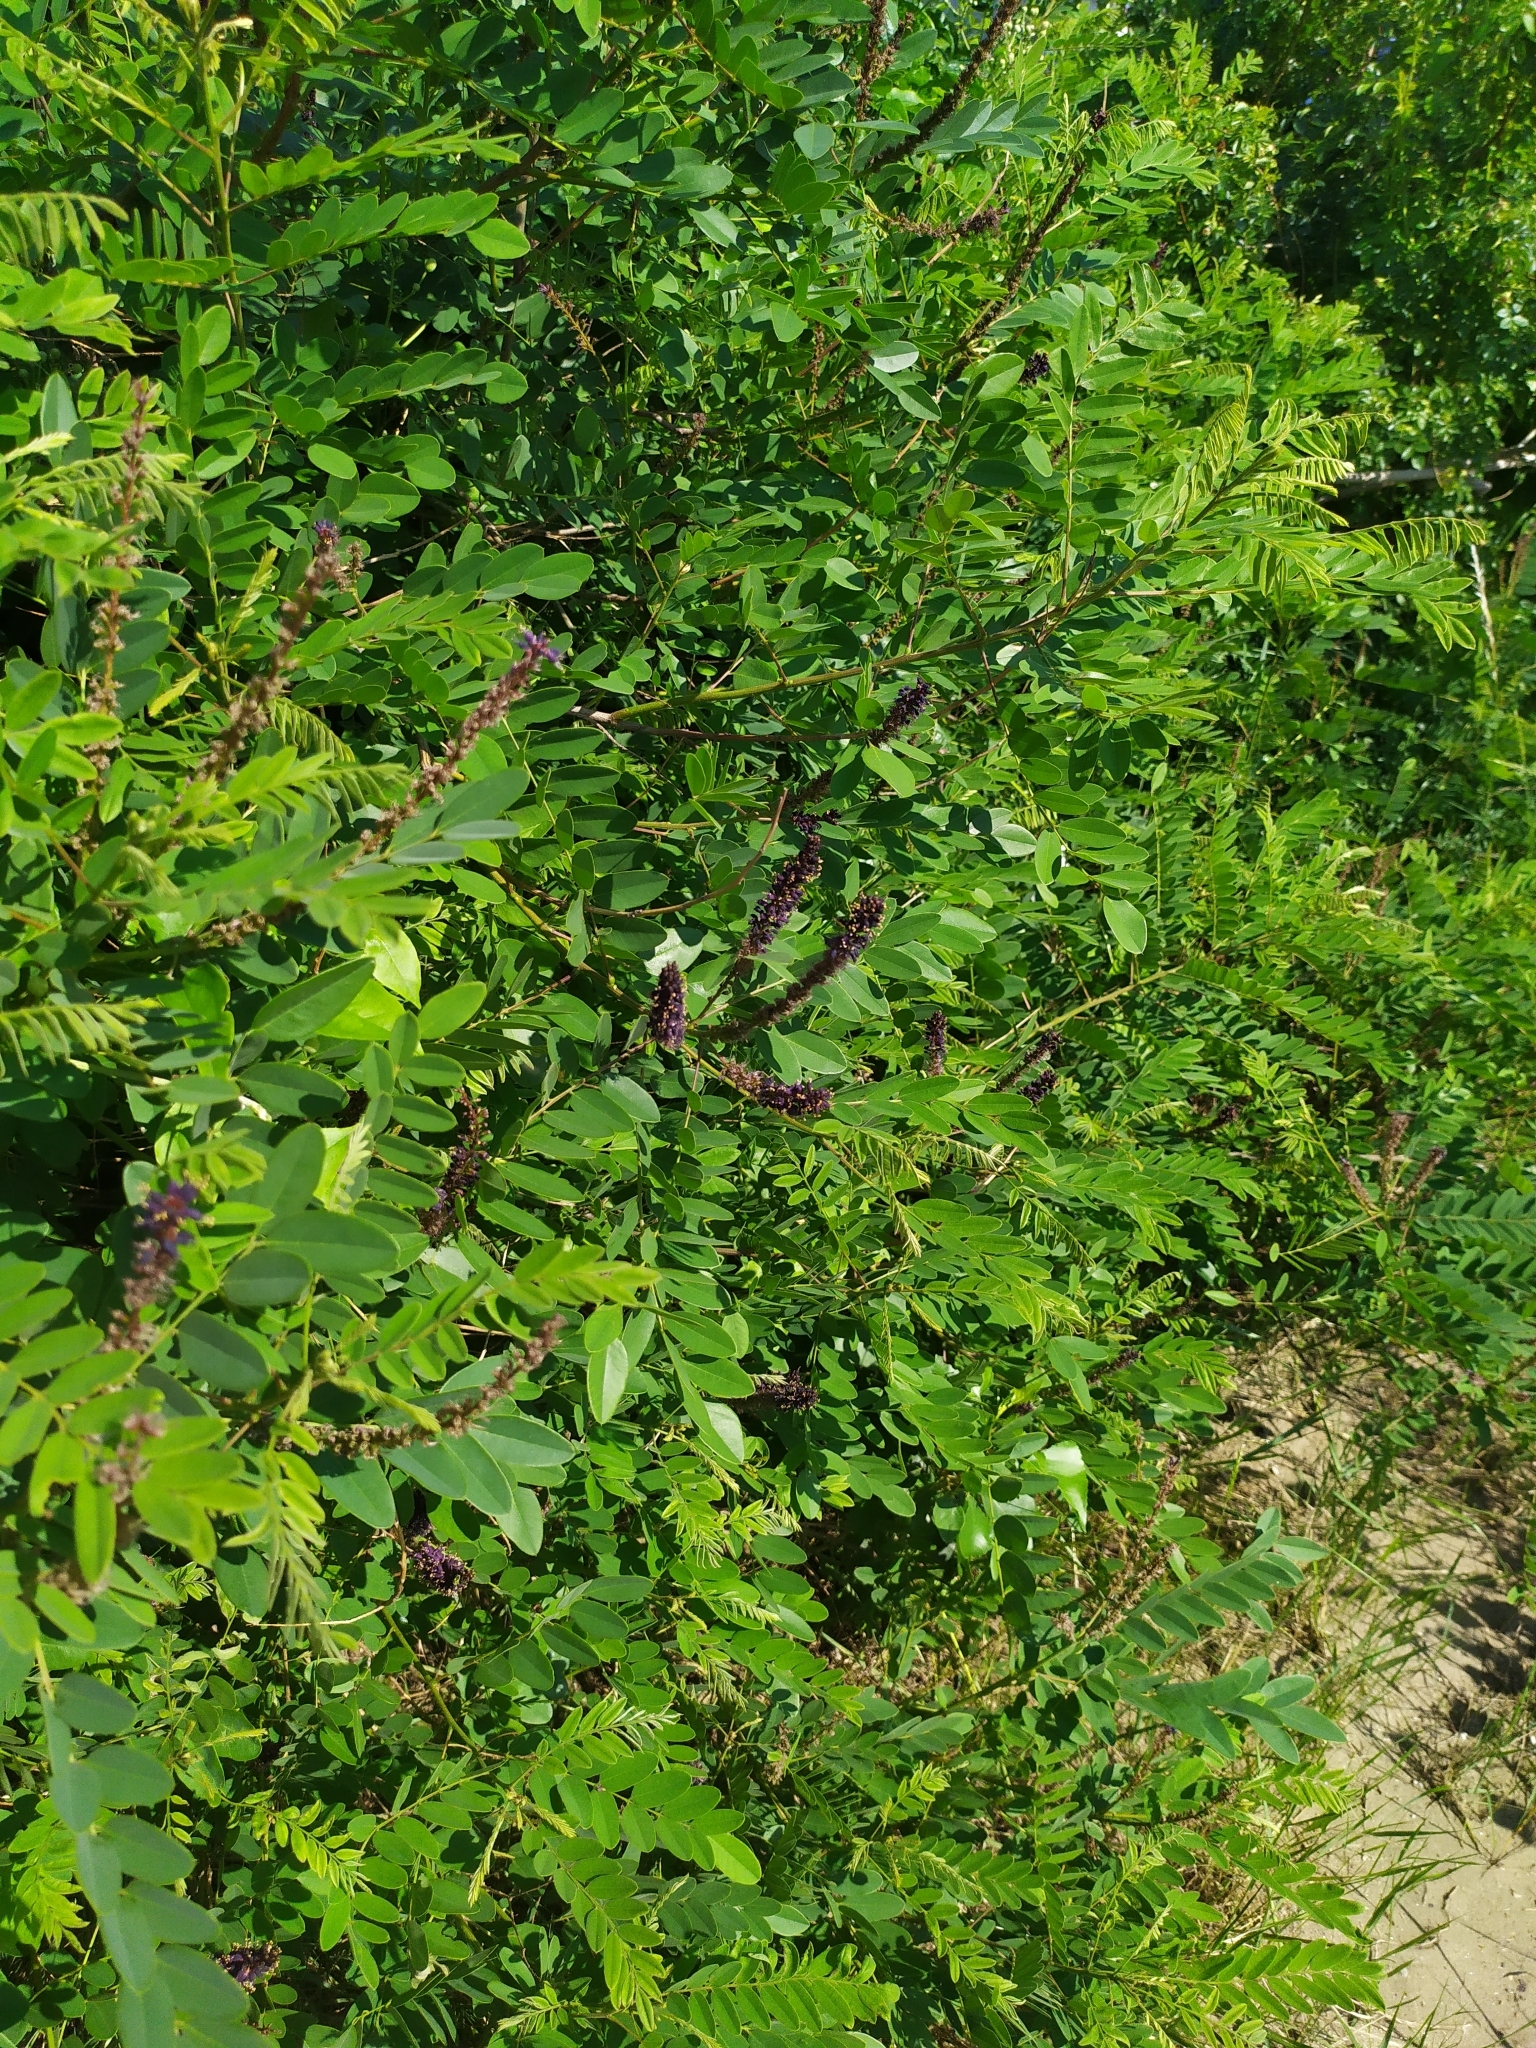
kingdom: Plantae
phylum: Tracheophyta
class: Magnoliopsida
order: Fabales
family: Fabaceae
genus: Amorpha
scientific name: Amorpha fruticosa
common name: False indigo
